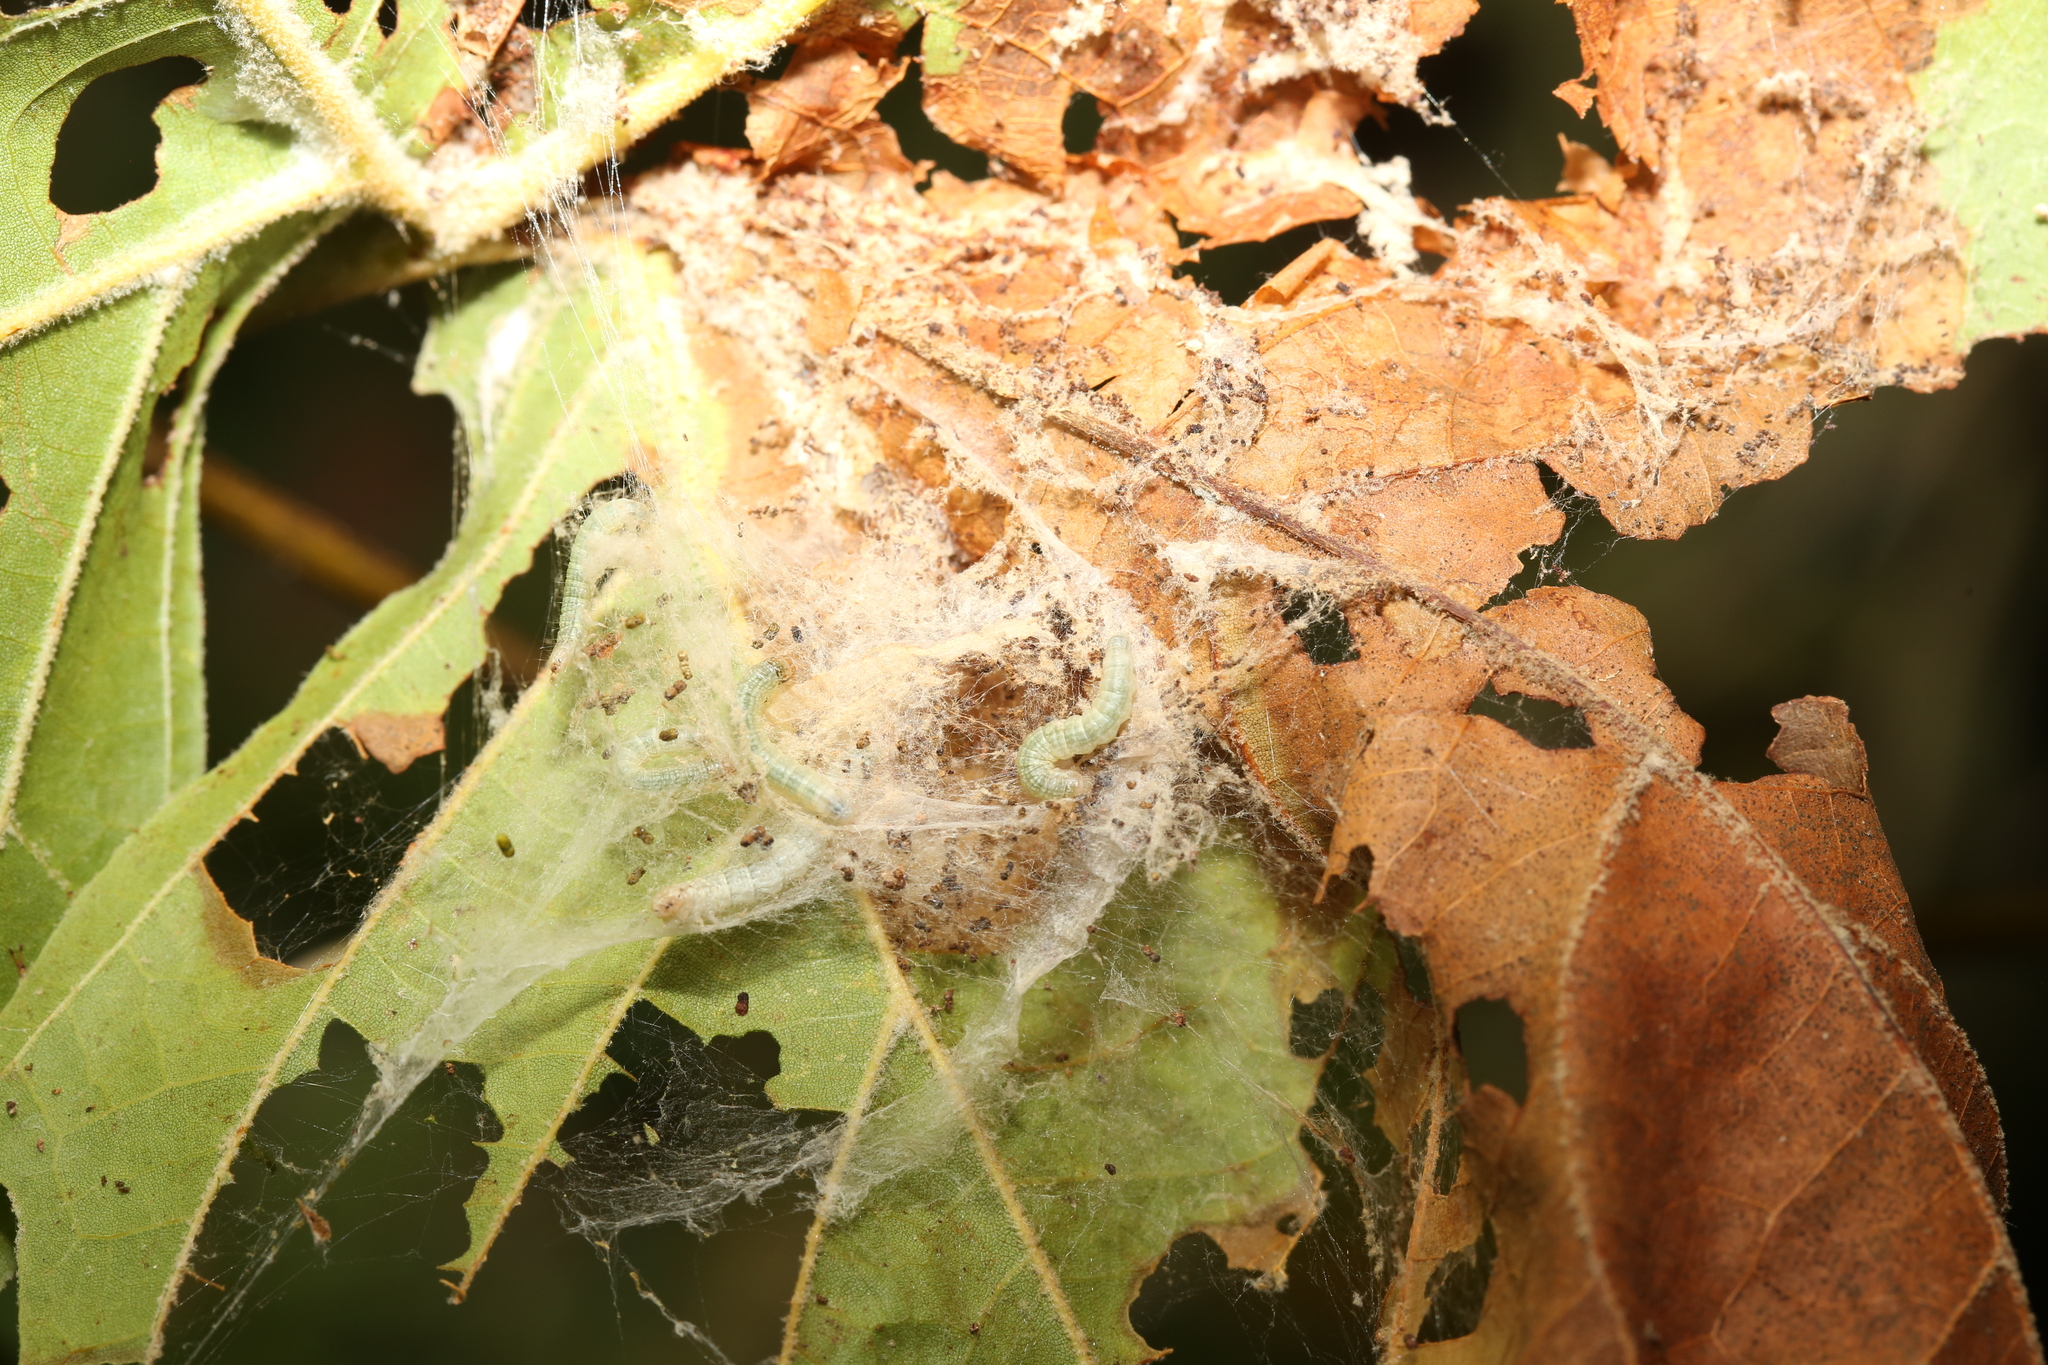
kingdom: Animalia
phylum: Arthropoda
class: Insecta
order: Lepidoptera
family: Pyralidae
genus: Pococera
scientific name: Pococera militella
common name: Sycamore webworm moth
